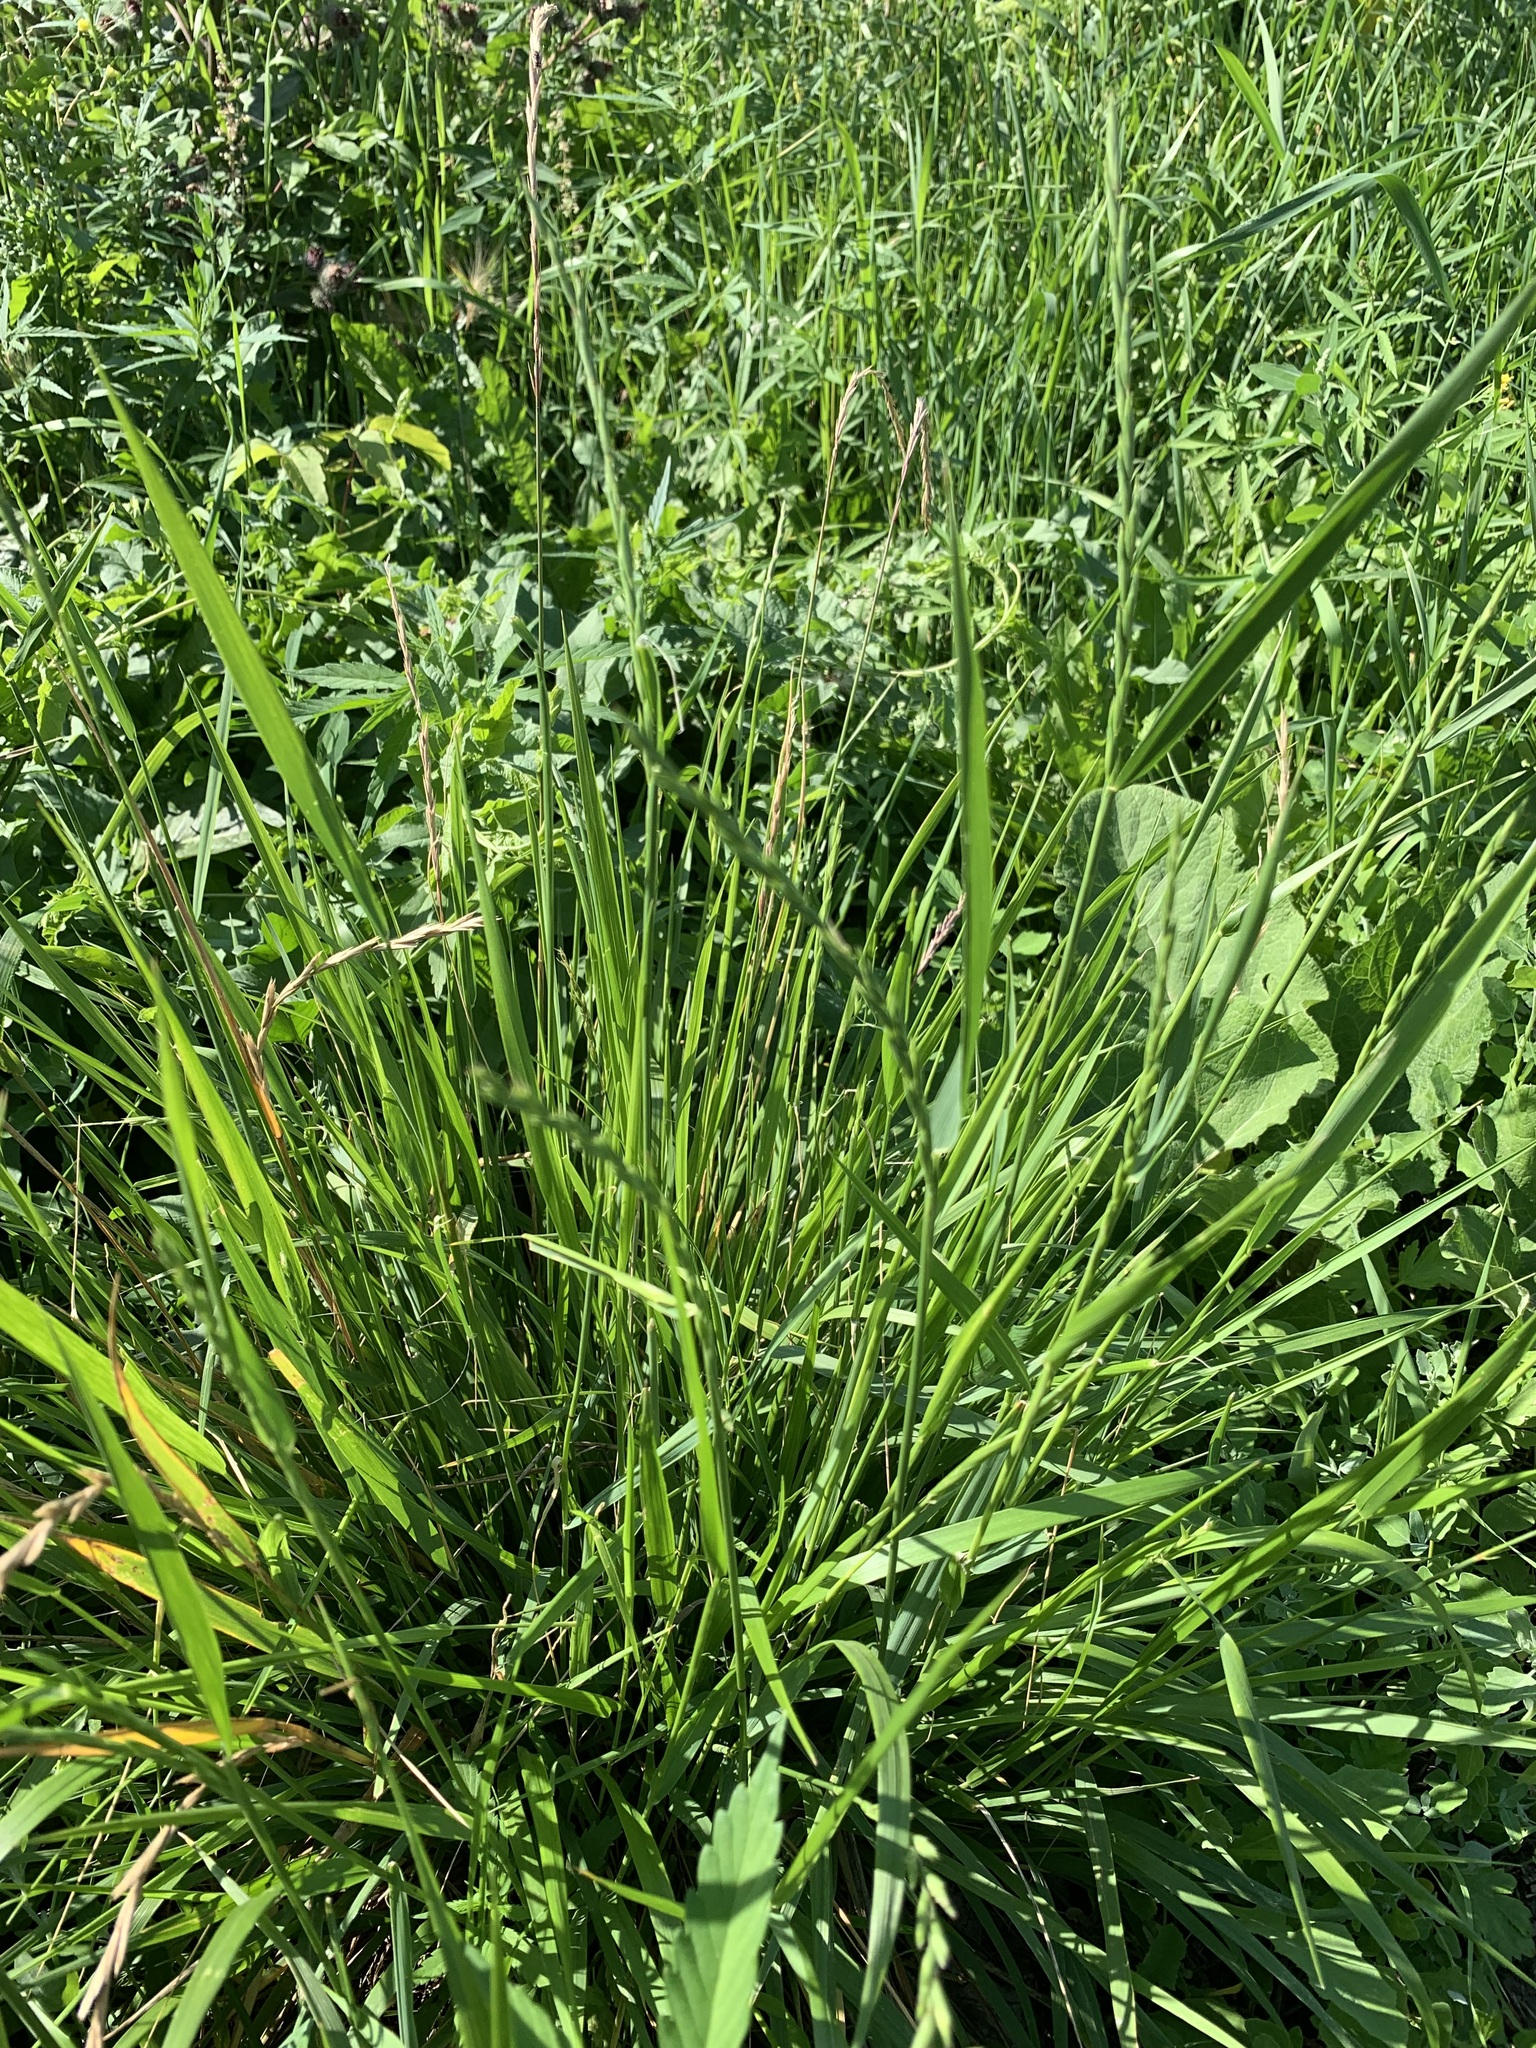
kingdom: Plantae
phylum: Tracheophyta
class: Liliopsida
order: Poales
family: Poaceae
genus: Elymus
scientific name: Elymus fibrosus
